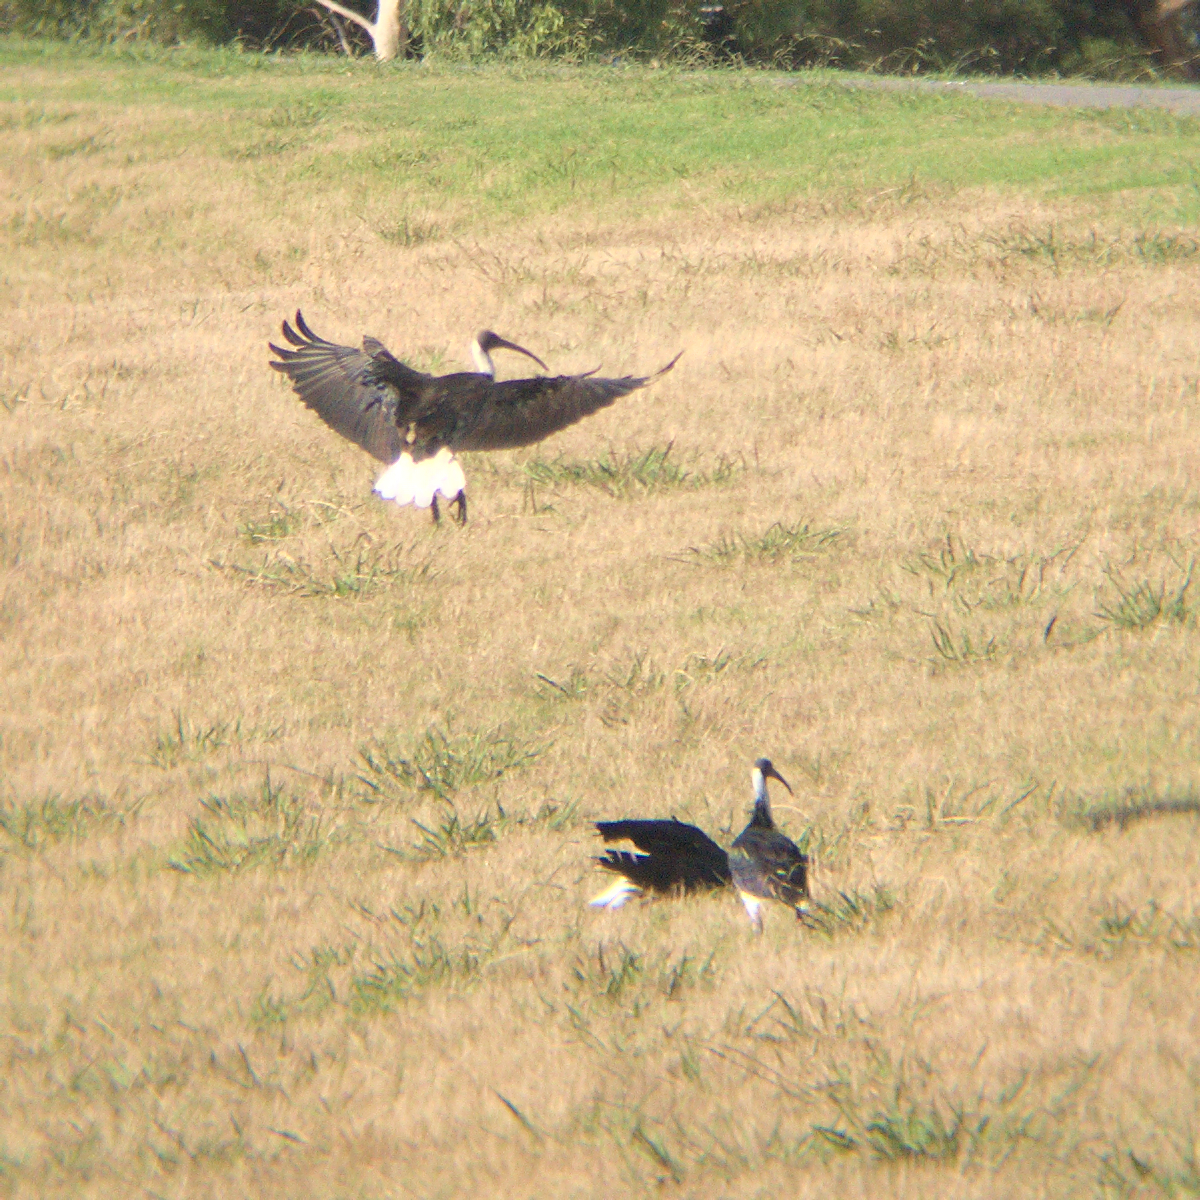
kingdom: Animalia
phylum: Chordata
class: Aves
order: Pelecaniformes
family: Threskiornithidae
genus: Threskiornis
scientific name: Threskiornis spinicollis
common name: Straw-necked ibis
